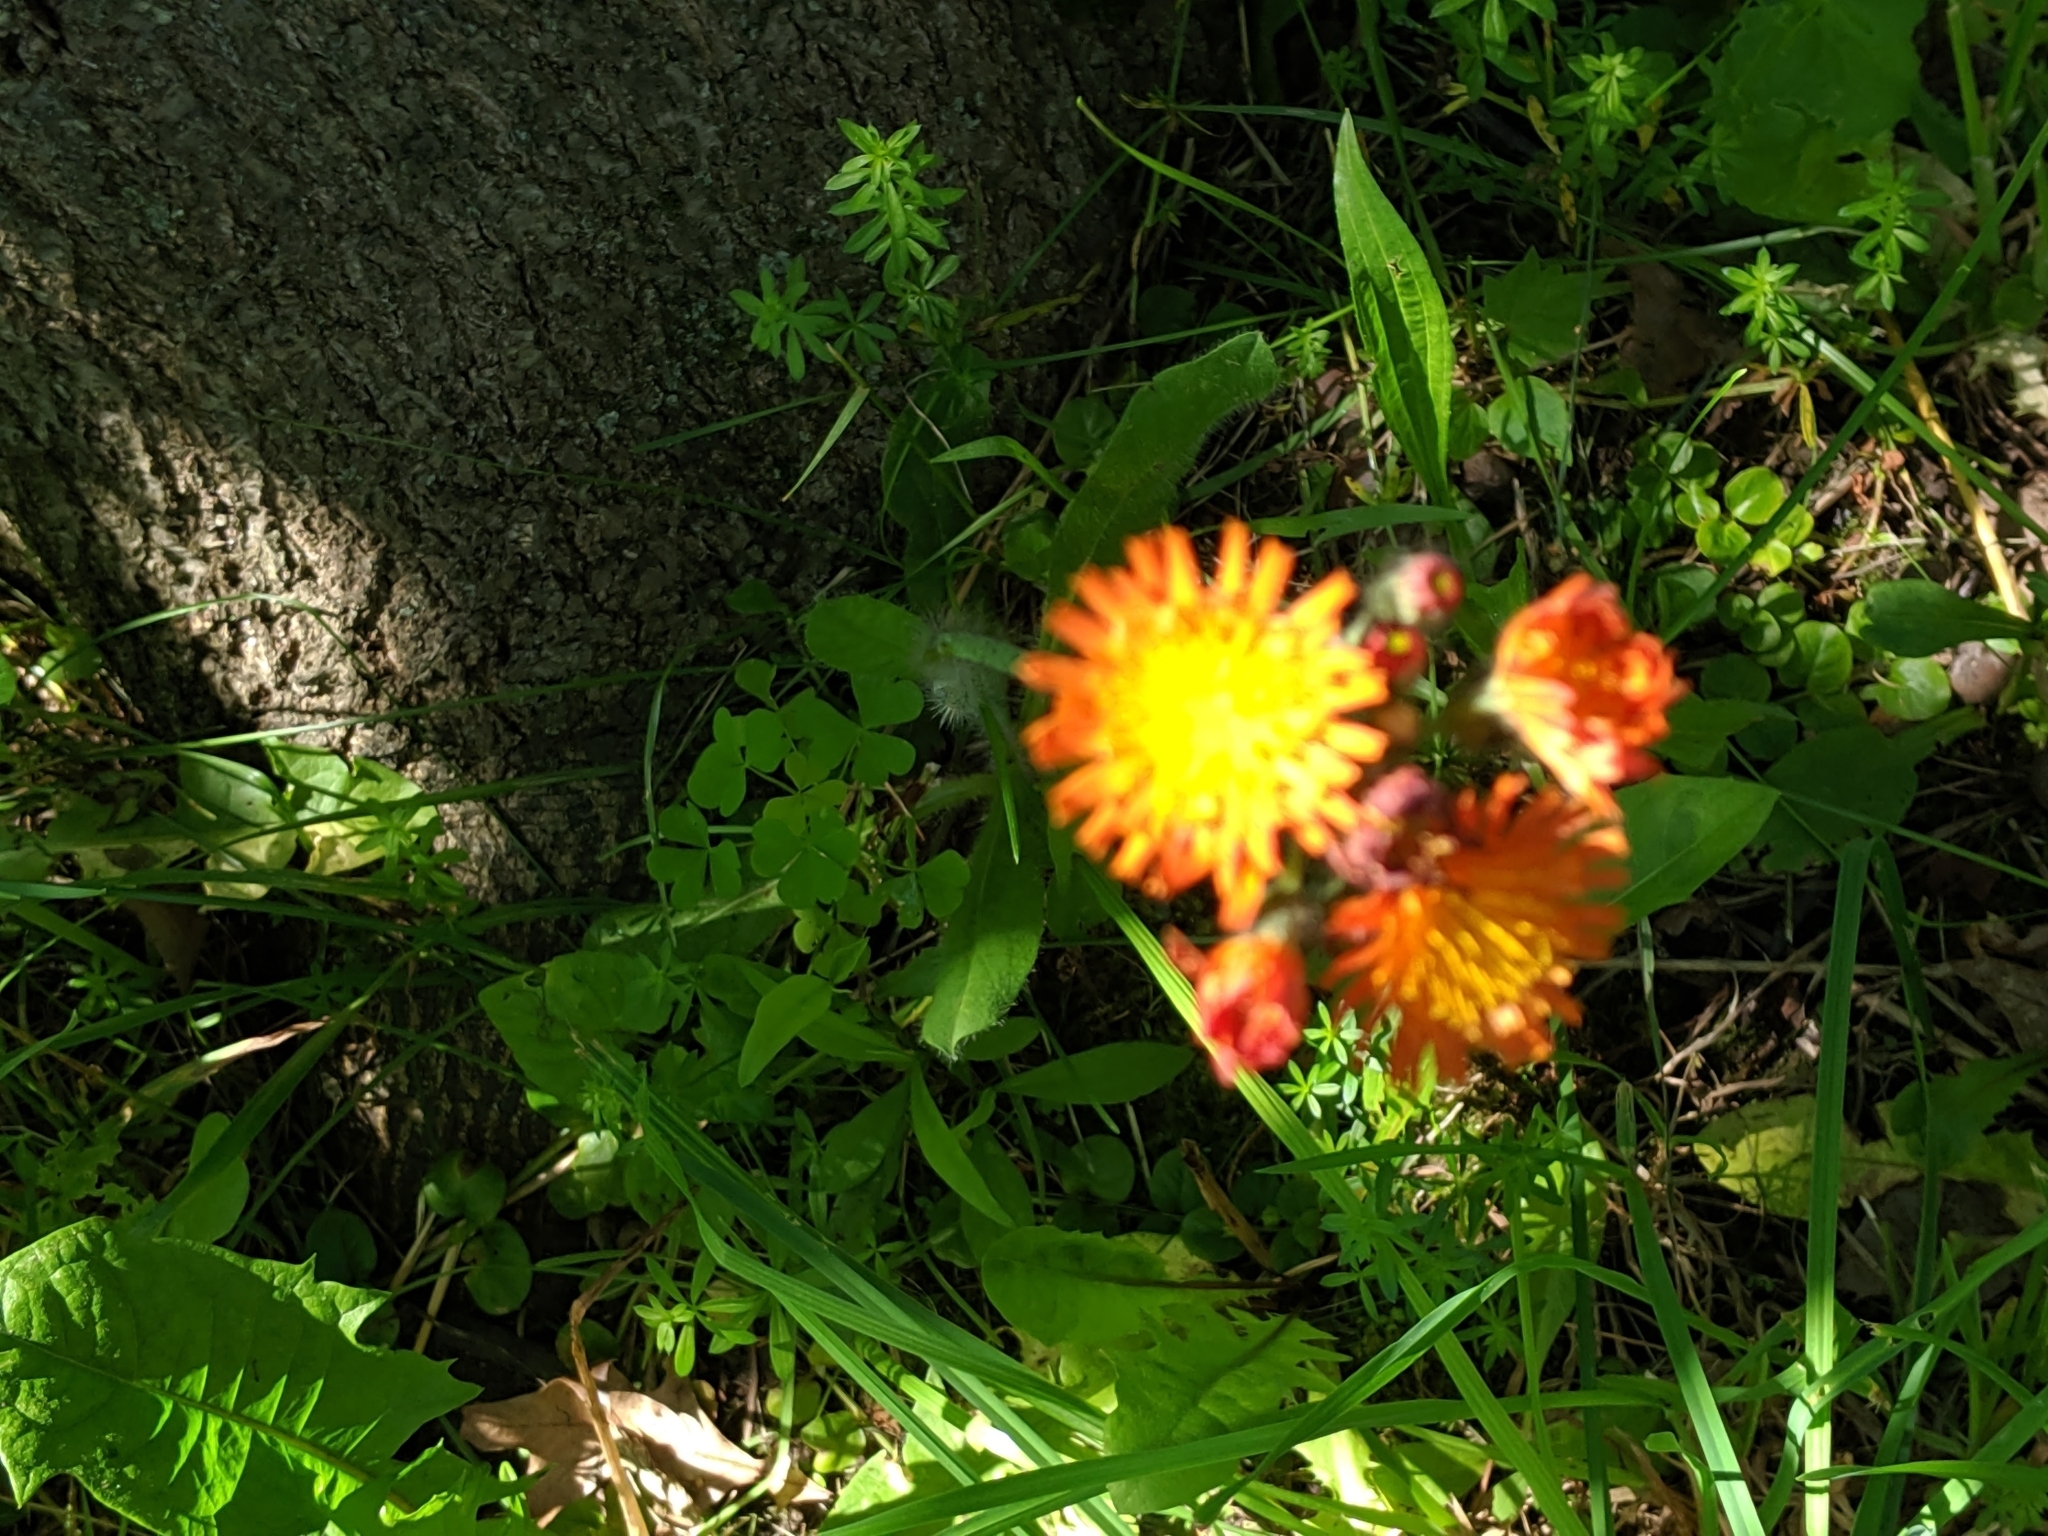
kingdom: Plantae
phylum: Tracheophyta
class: Magnoliopsida
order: Asterales
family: Asteraceae
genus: Pilosella
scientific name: Pilosella aurantiaca
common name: Fox-and-cubs
